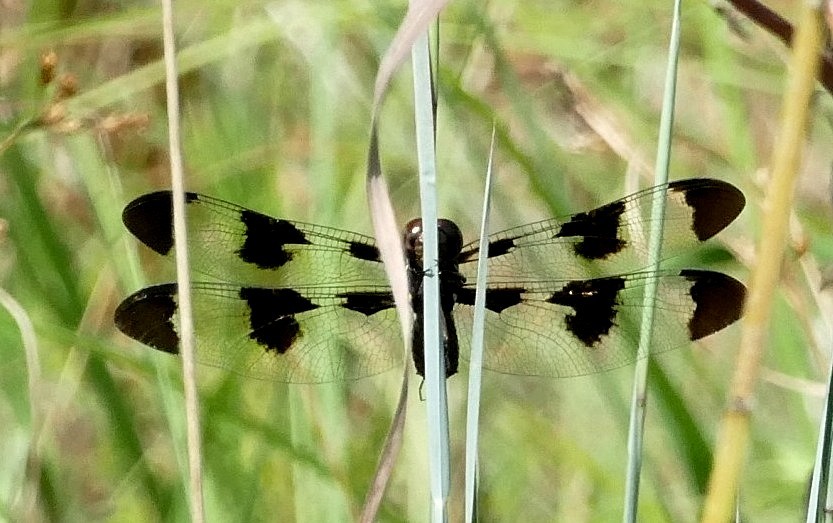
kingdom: Animalia
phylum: Arthropoda
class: Insecta
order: Odonata
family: Libellulidae
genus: Plathemis
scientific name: Plathemis lydia
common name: Common whitetail
